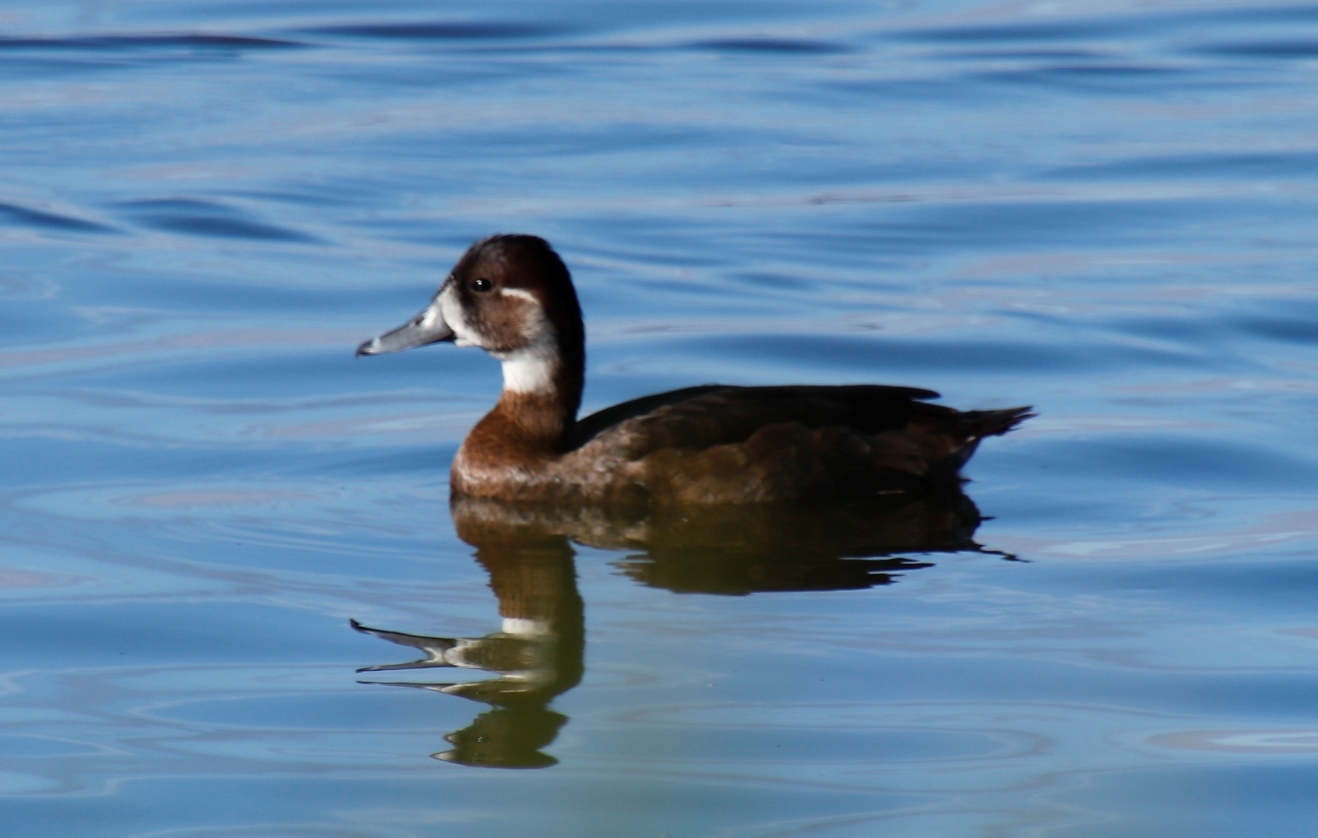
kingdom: Animalia
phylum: Chordata
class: Aves
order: Anseriformes
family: Anatidae
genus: Netta
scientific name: Netta erythrophthalma
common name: Southern pochard
